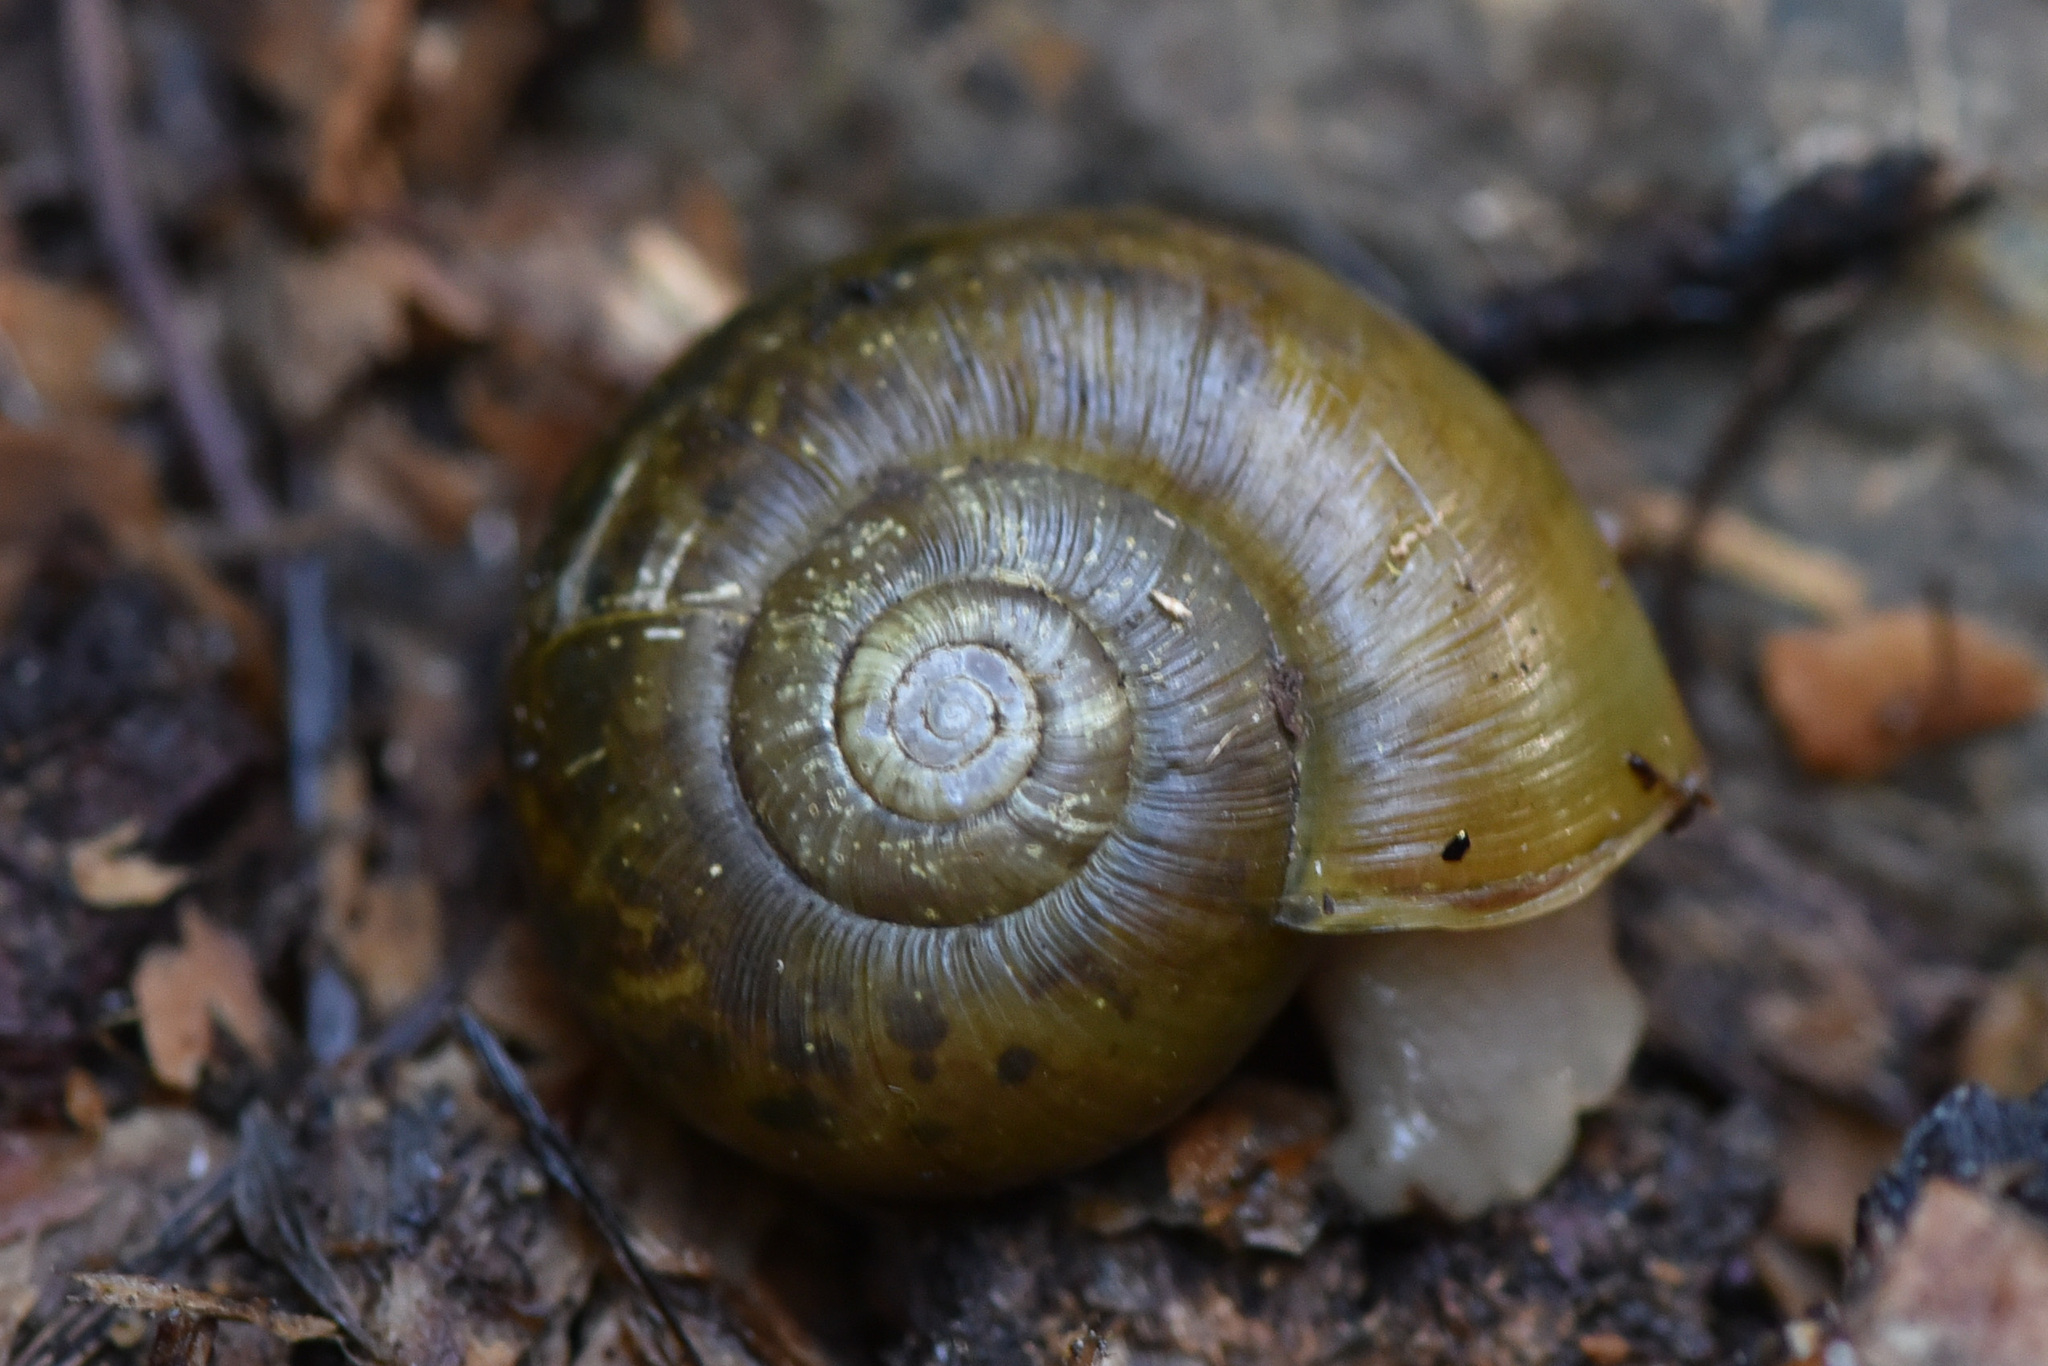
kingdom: Animalia
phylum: Mollusca
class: Gastropoda
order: Stylommatophora
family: Haplotrematidae
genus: Haplotrema
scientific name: Haplotrema vancouverense
